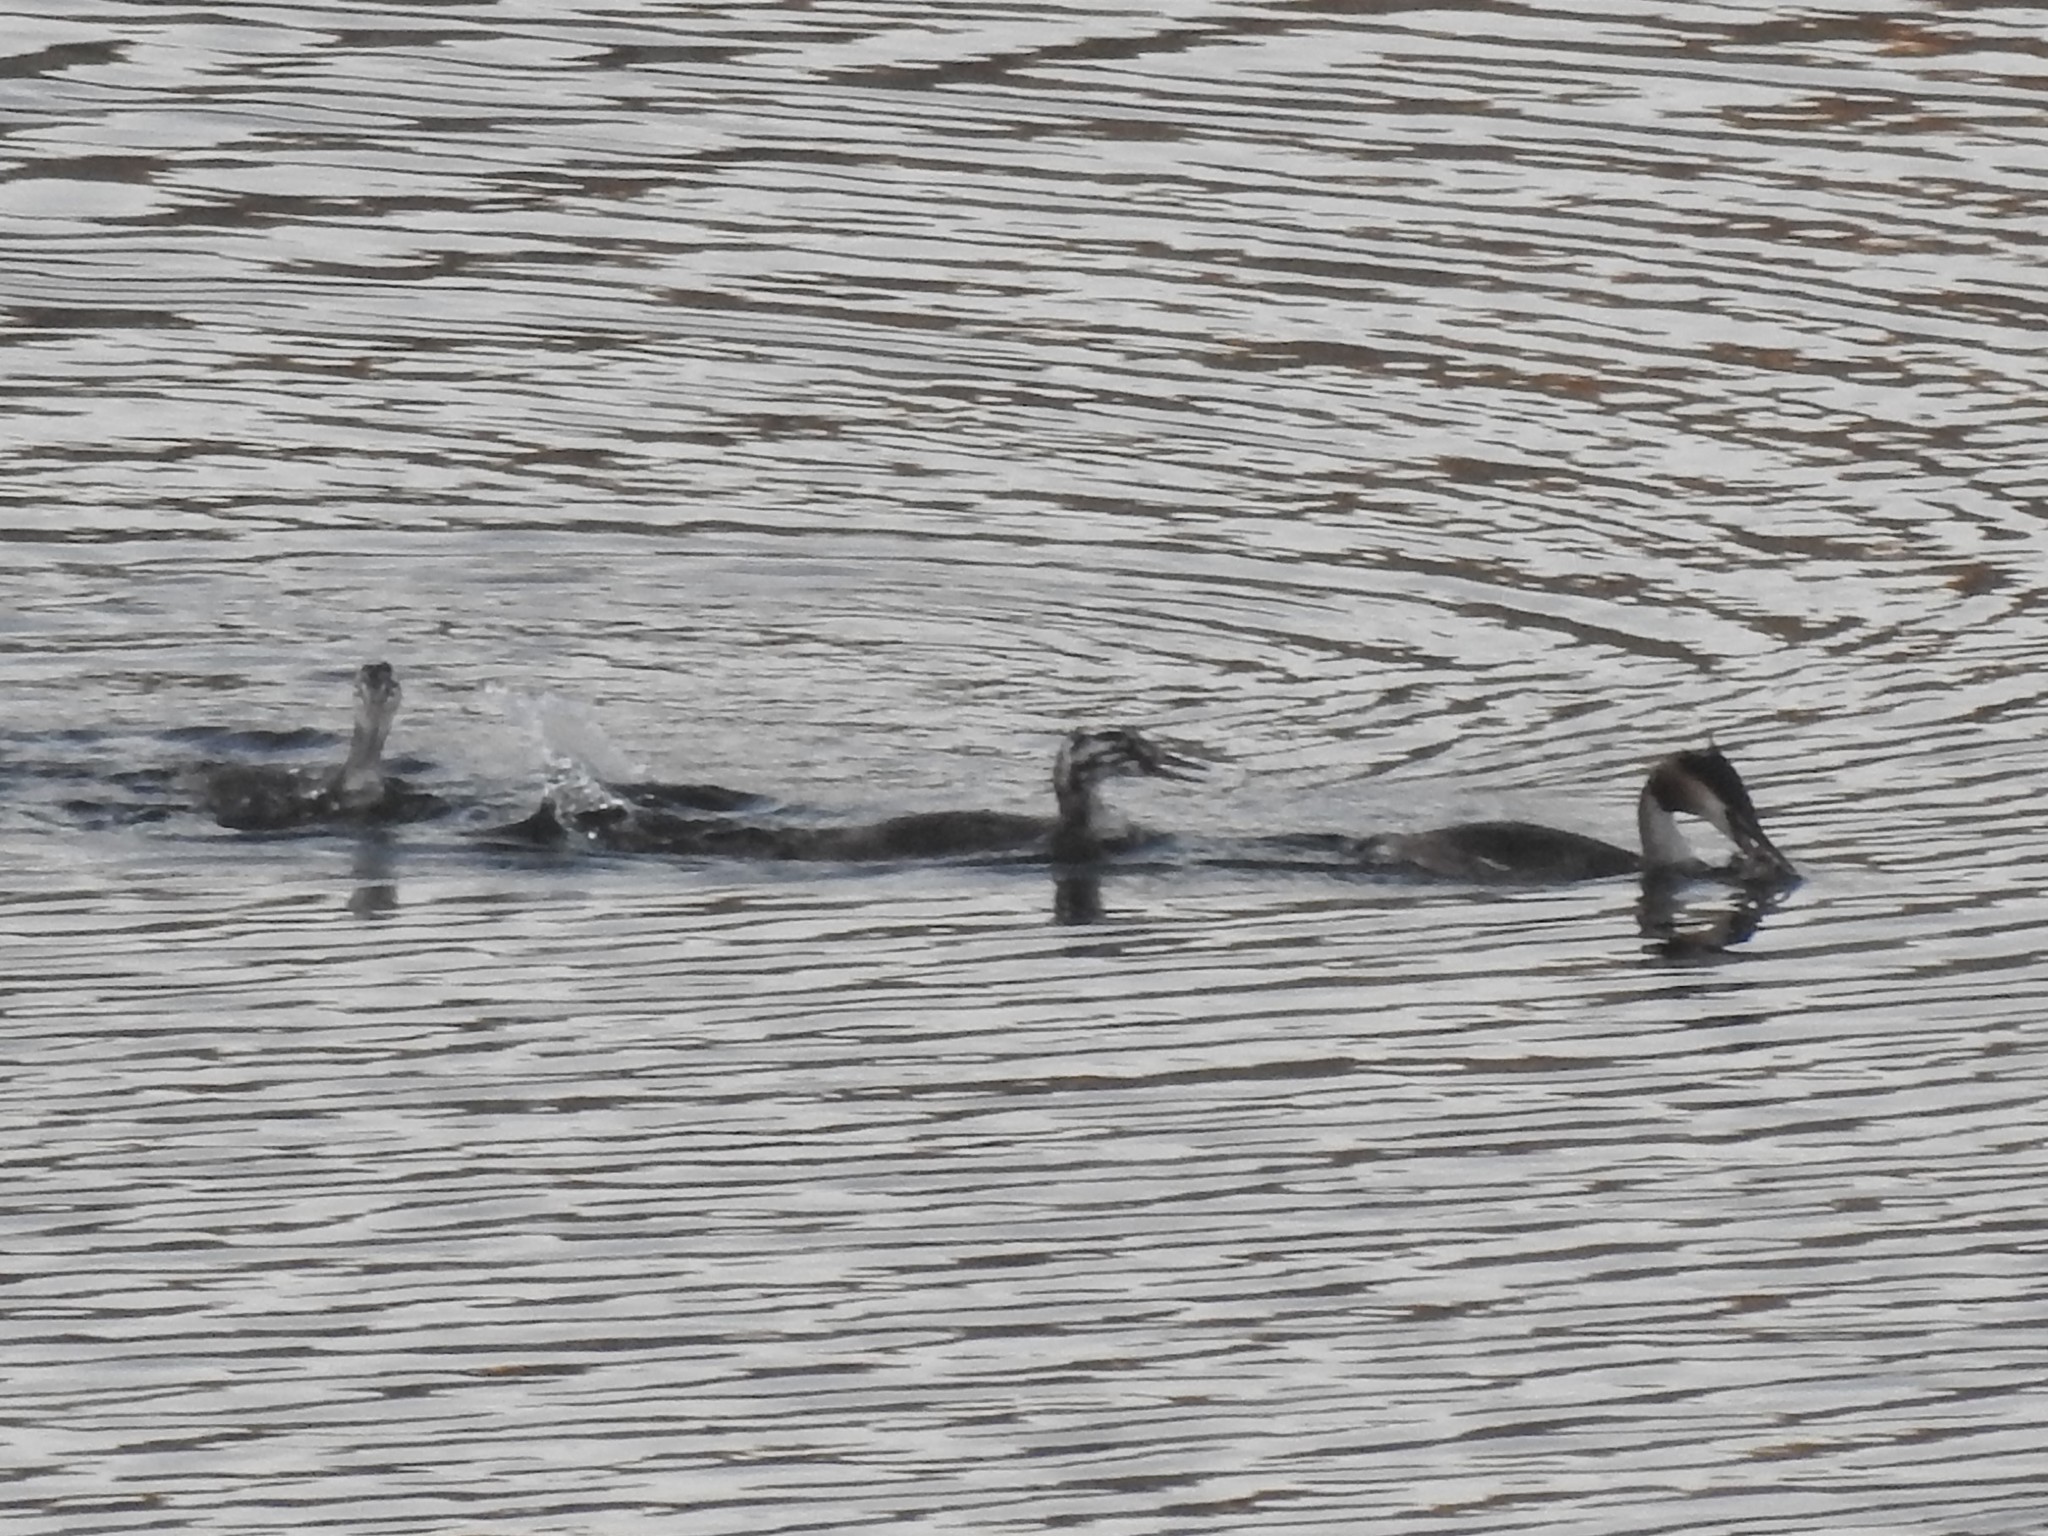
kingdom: Animalia
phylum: Chordata
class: Aves
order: Podicipediformes
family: Podicipedidae
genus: Podiceps
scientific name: Podiceps cristatus
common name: Great crested grebe
